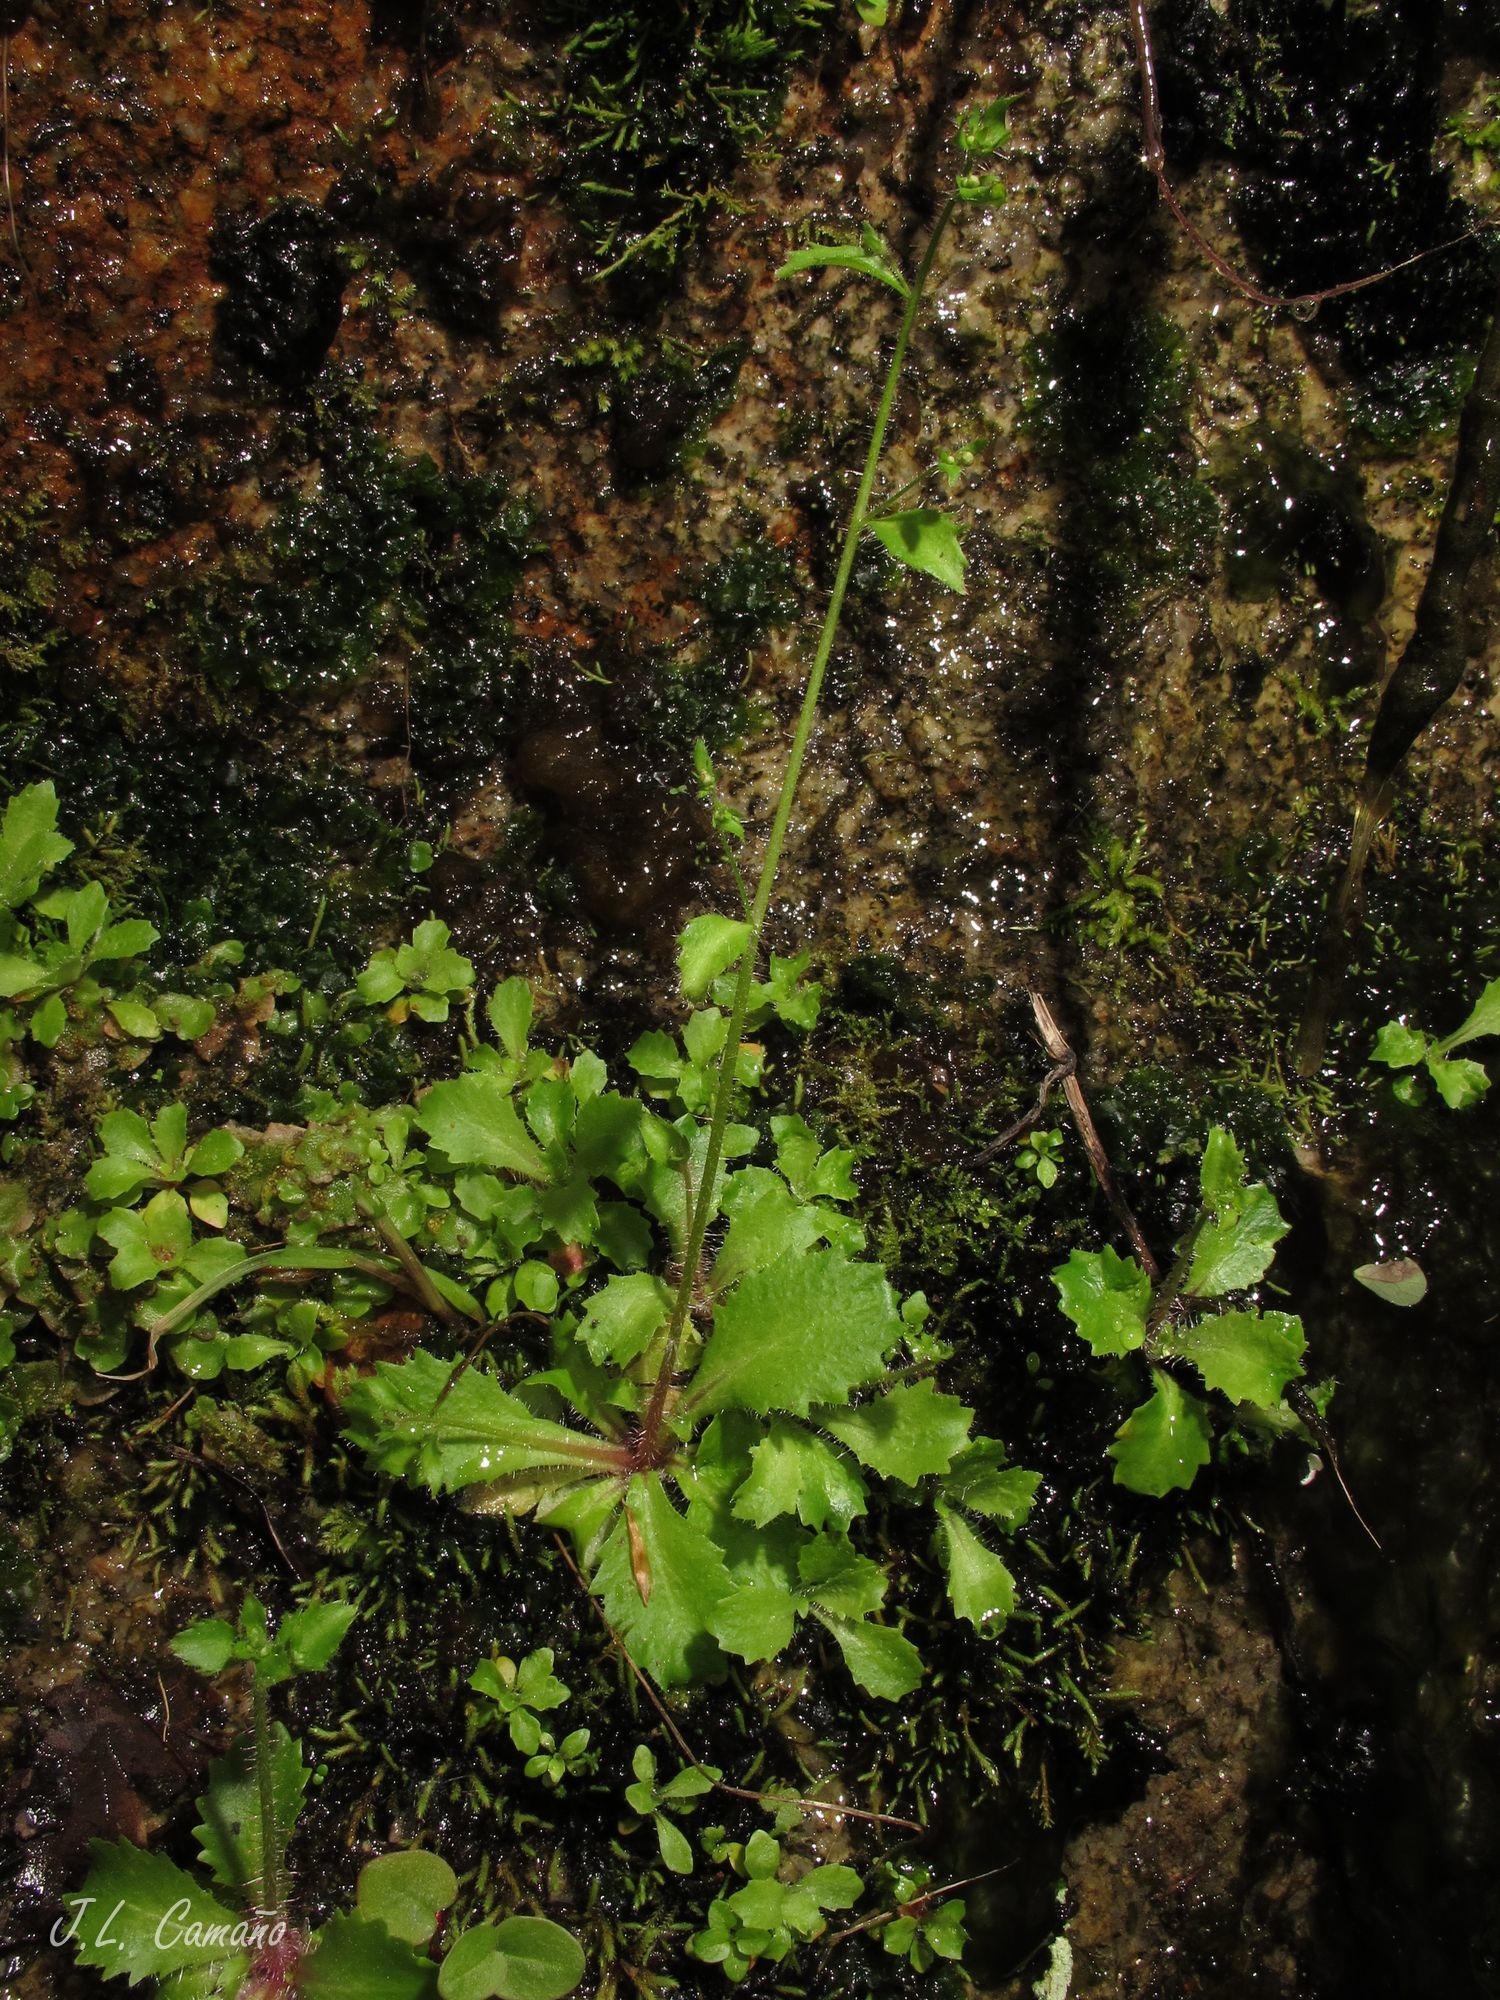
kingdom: Plantae
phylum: Tracheophyta
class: Magnoliopsida
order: Saxifragales
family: Saxifragaceae
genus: Micranthes
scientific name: Micranthes clusii
